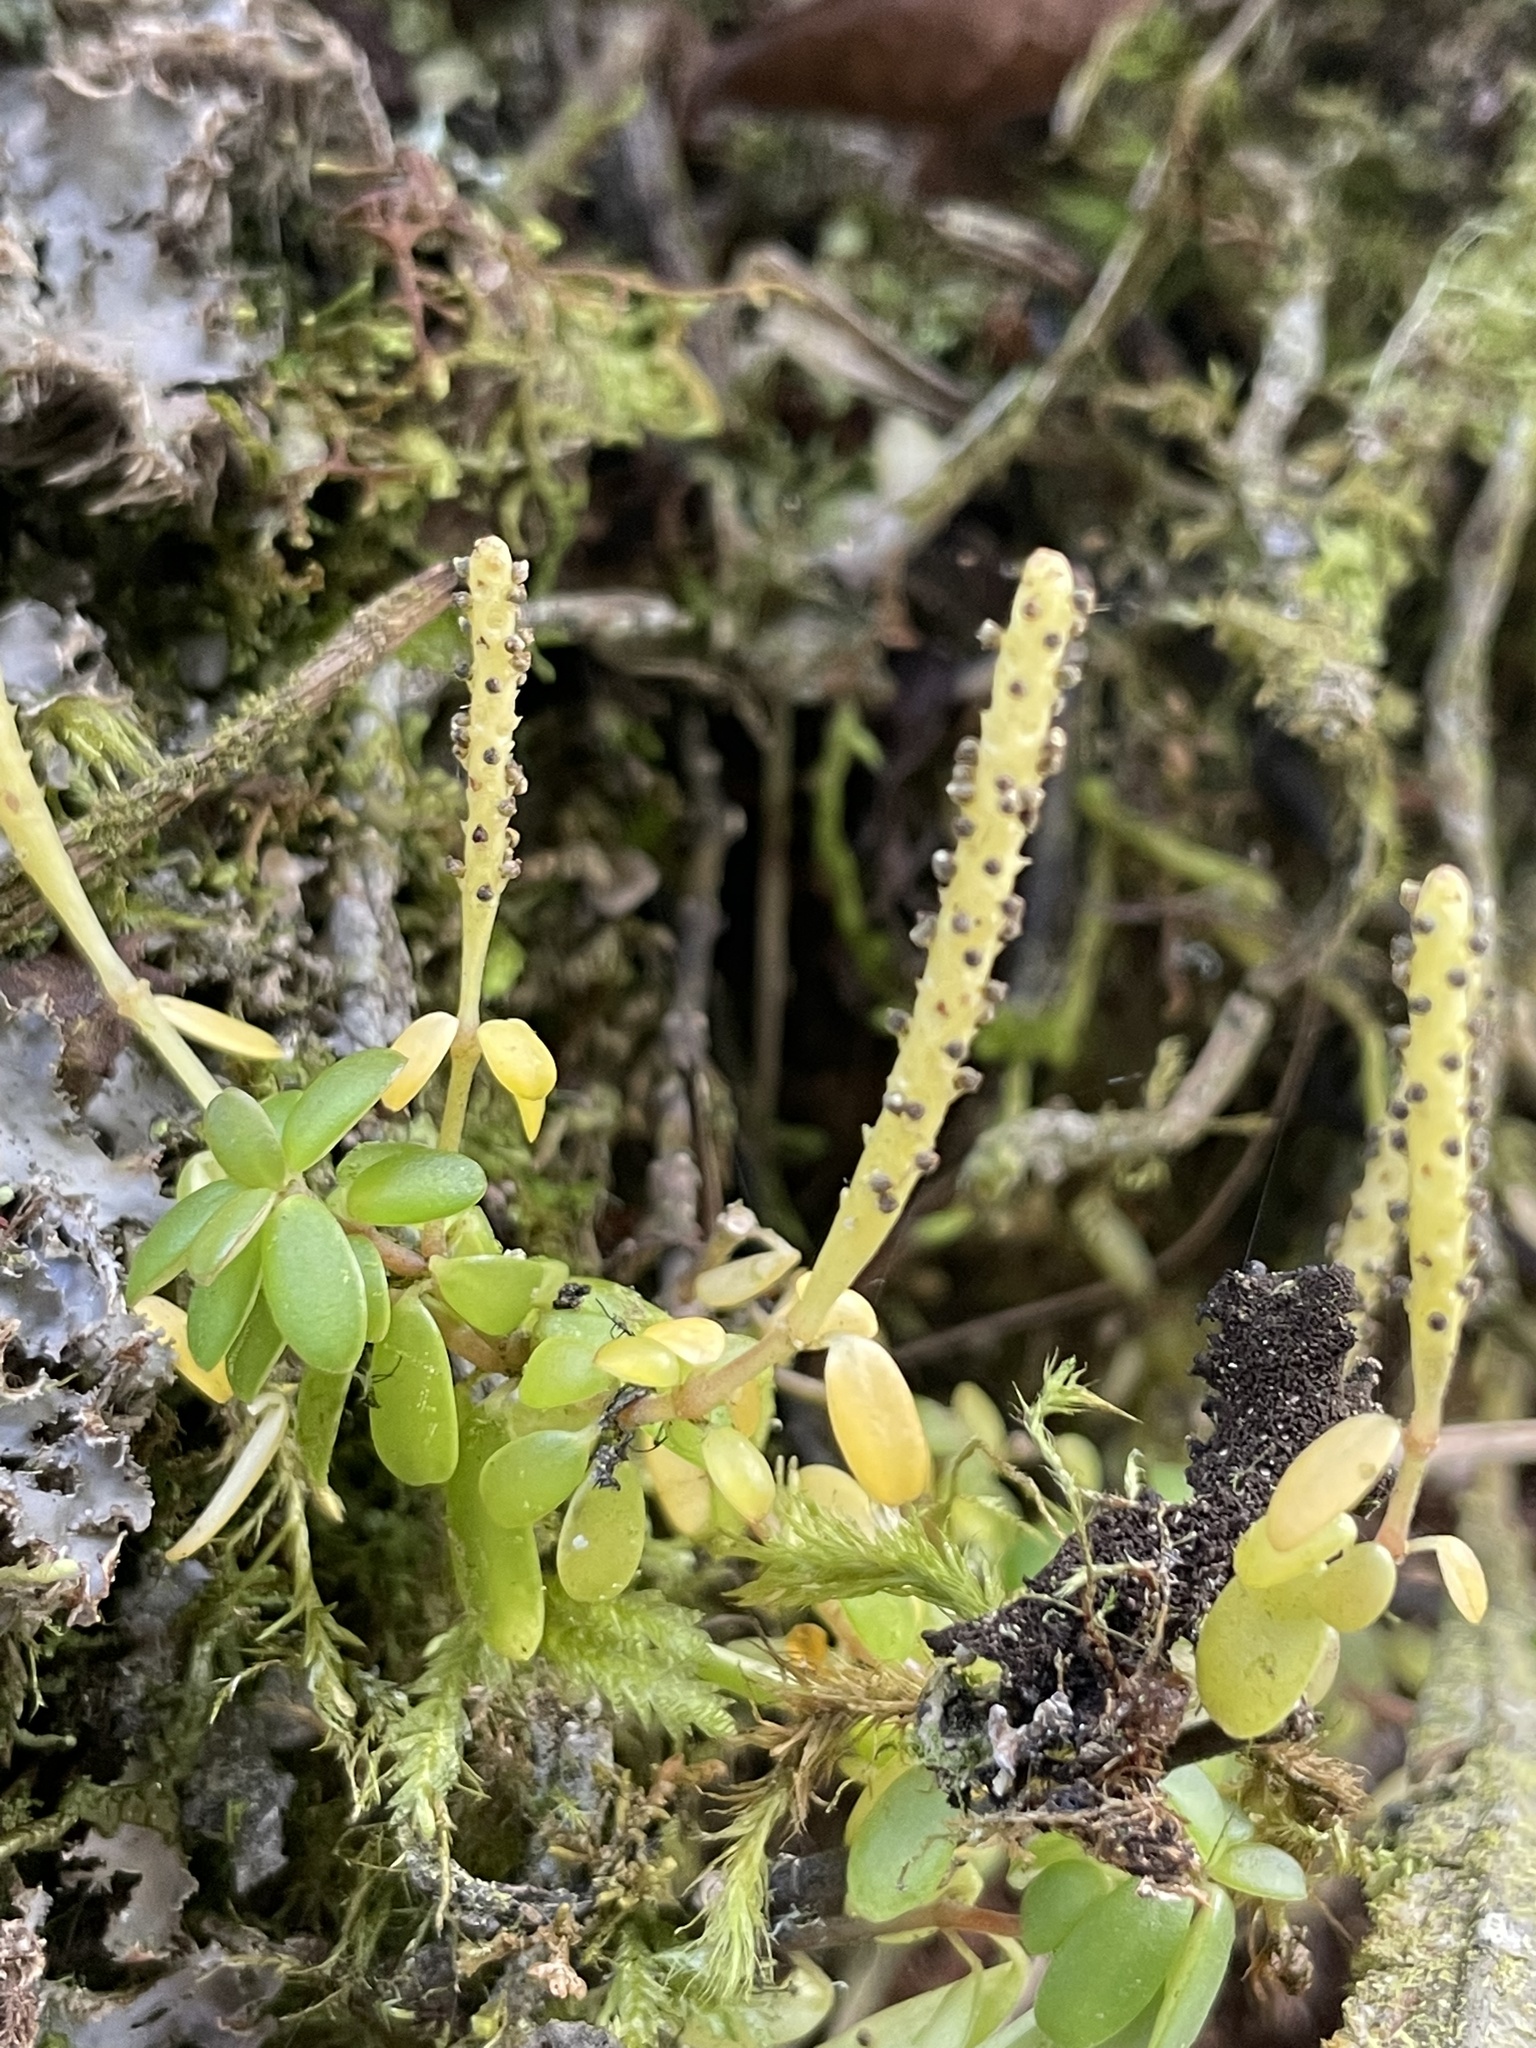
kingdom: Plantae
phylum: Tracheophyta
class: Magnoliopsida
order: Piperales
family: Piperaceae
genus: Peperomia
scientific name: Peperomia microphylla
